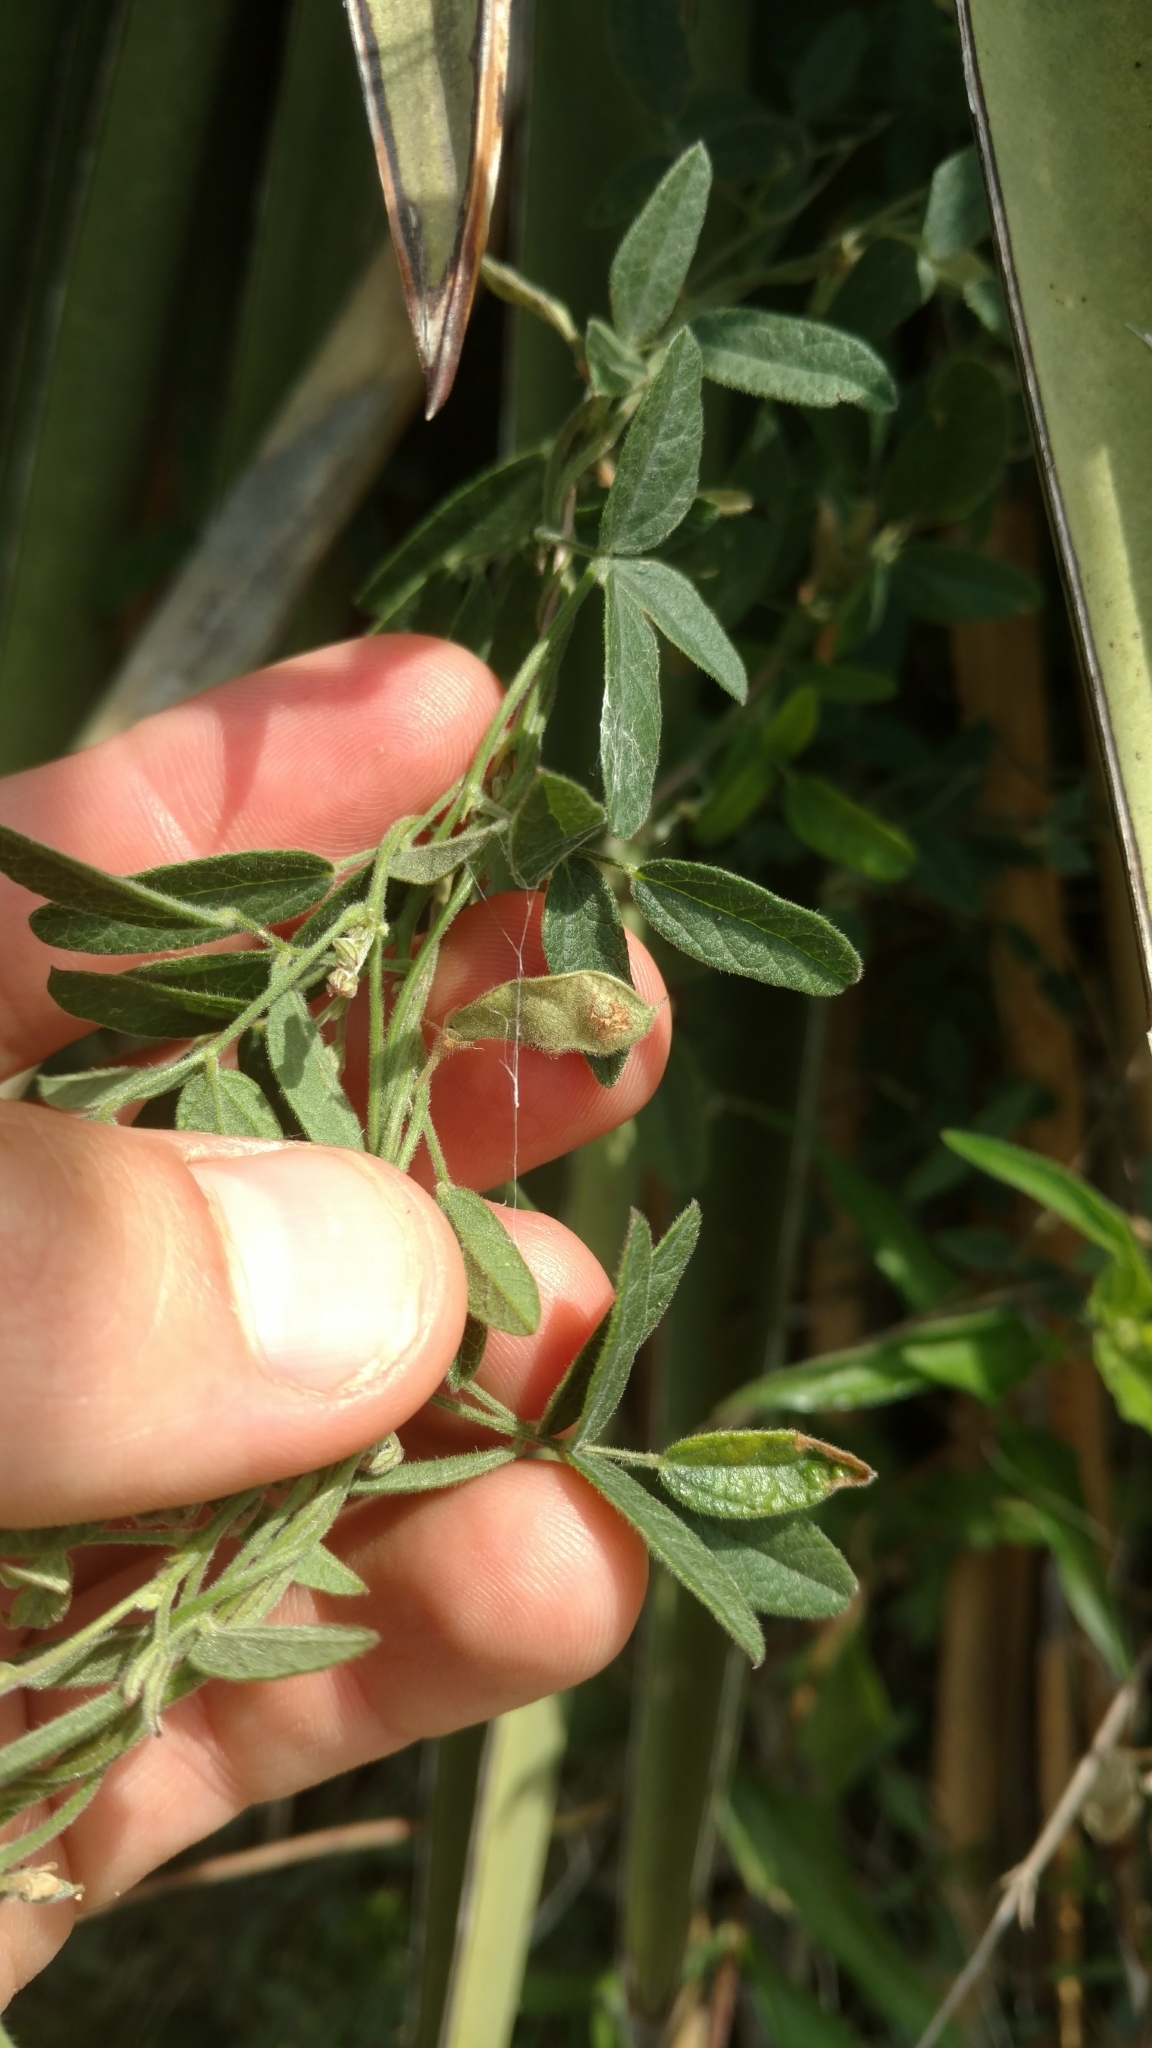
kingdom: Plantae
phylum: Tracheophyta
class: Magnoliopsida
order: Fabales
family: Fabaceae
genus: Rhynchosia
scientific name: Rhynchosia senna
